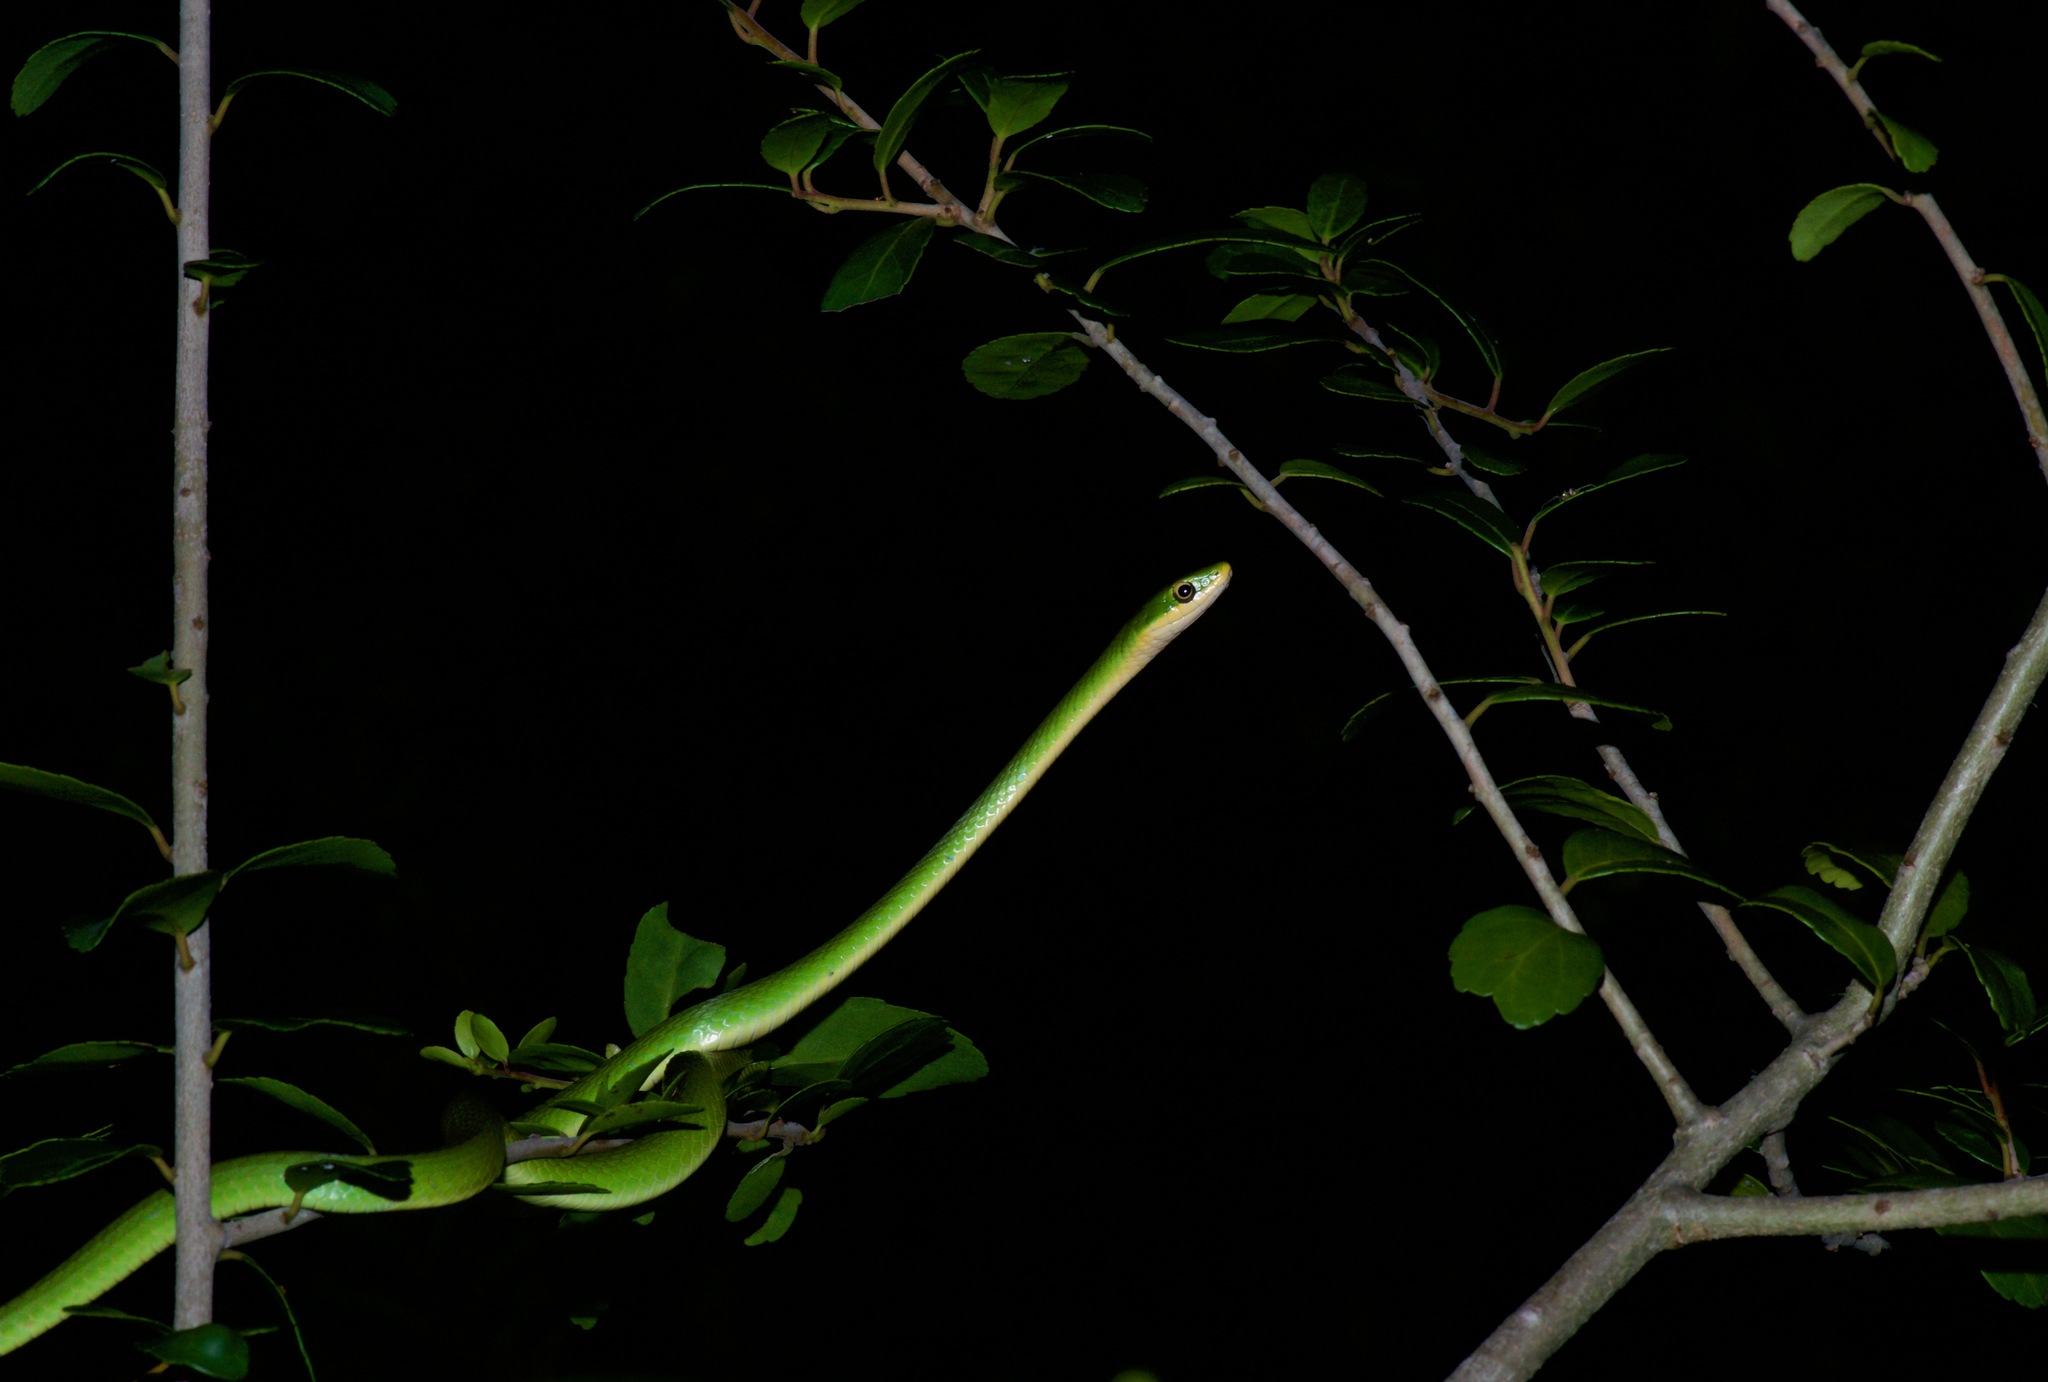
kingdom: Animalia
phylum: Chordata
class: Squamata
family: Colubridae
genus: Opheodrys
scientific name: Opheodrys aestivus
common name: Rough greensnake
